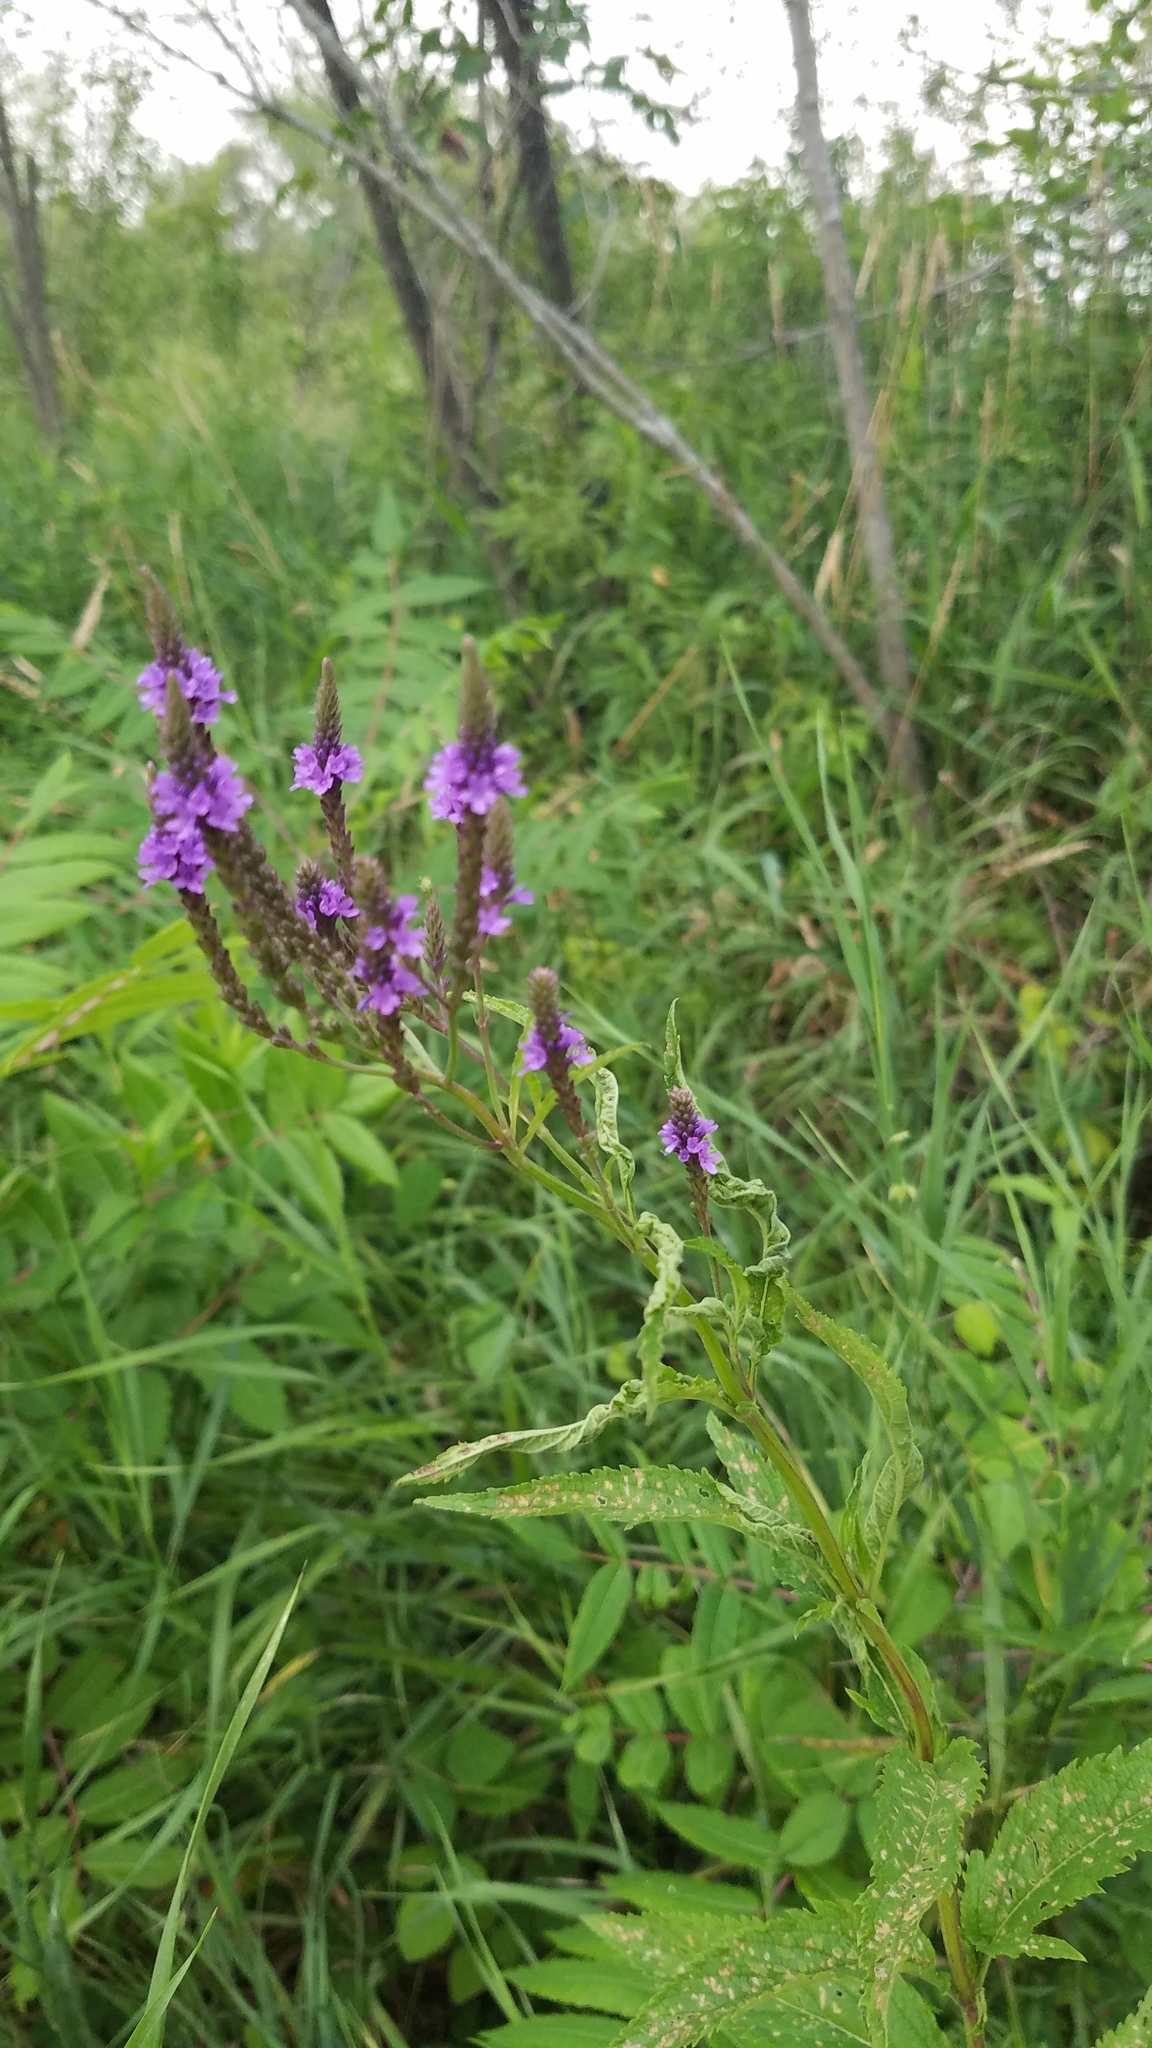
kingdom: Plantae
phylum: Tracheophyta
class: Magnoliopsida
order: Lamiales
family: Verbenaceae
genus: Verbena
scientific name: Verbena hastata
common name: American blue vervain
